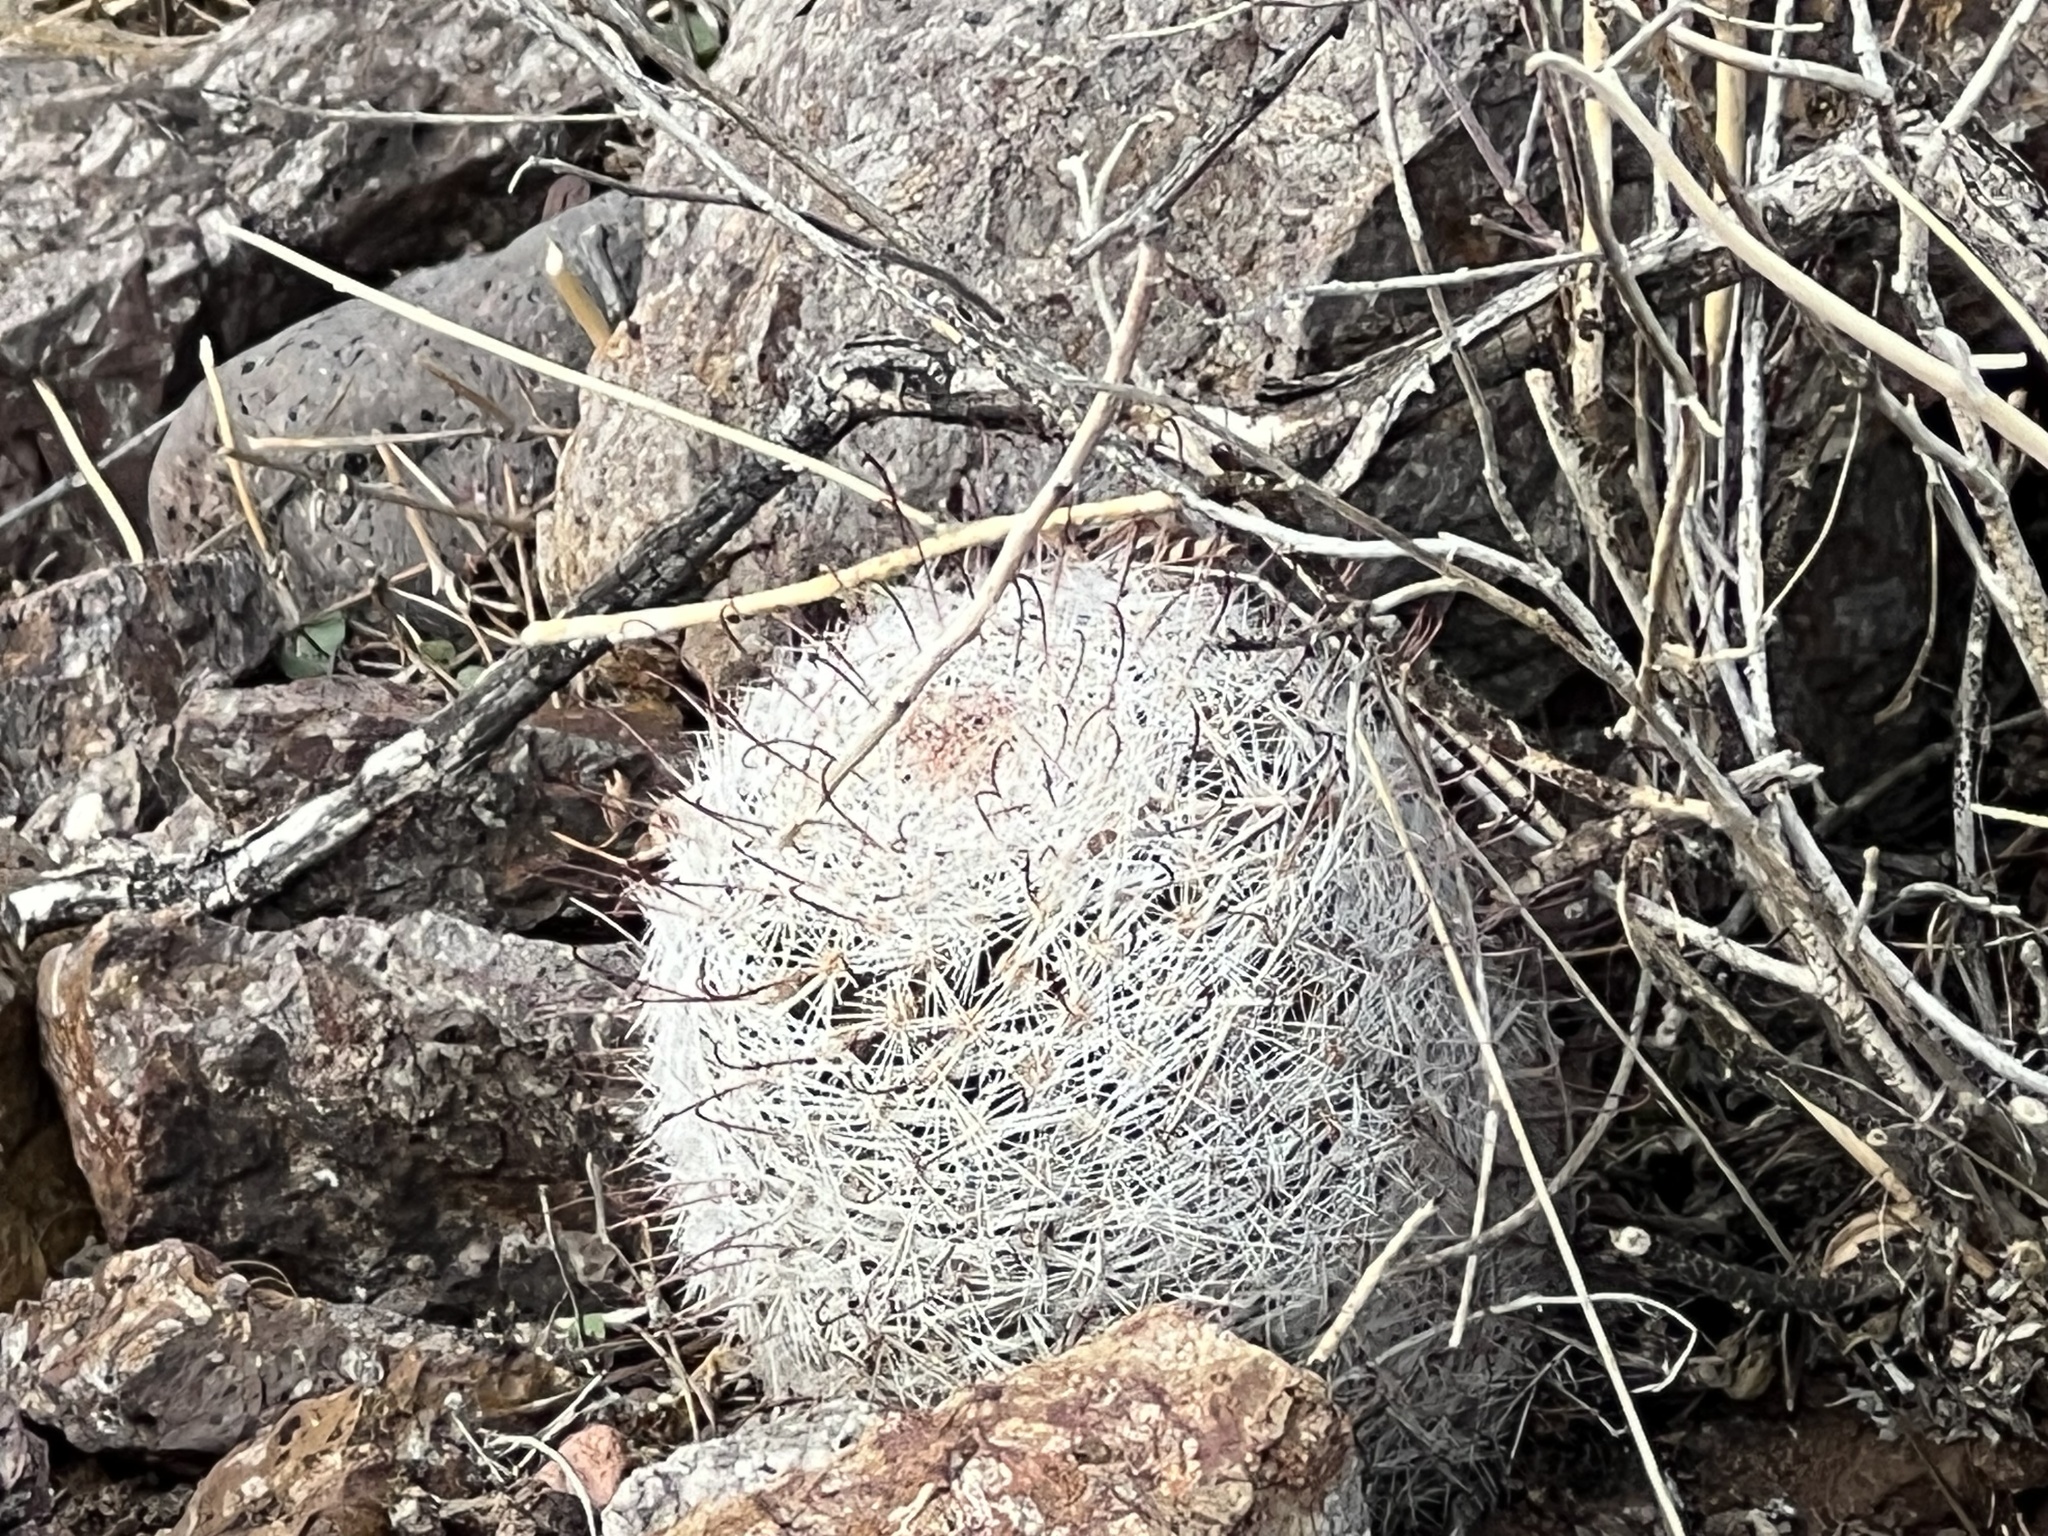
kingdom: Plantae
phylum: Tracheophyta
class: Magnoliopsida
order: Caryophyllales
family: Cactaceae
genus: Cochemiea
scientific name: Cochemiea grahamii
